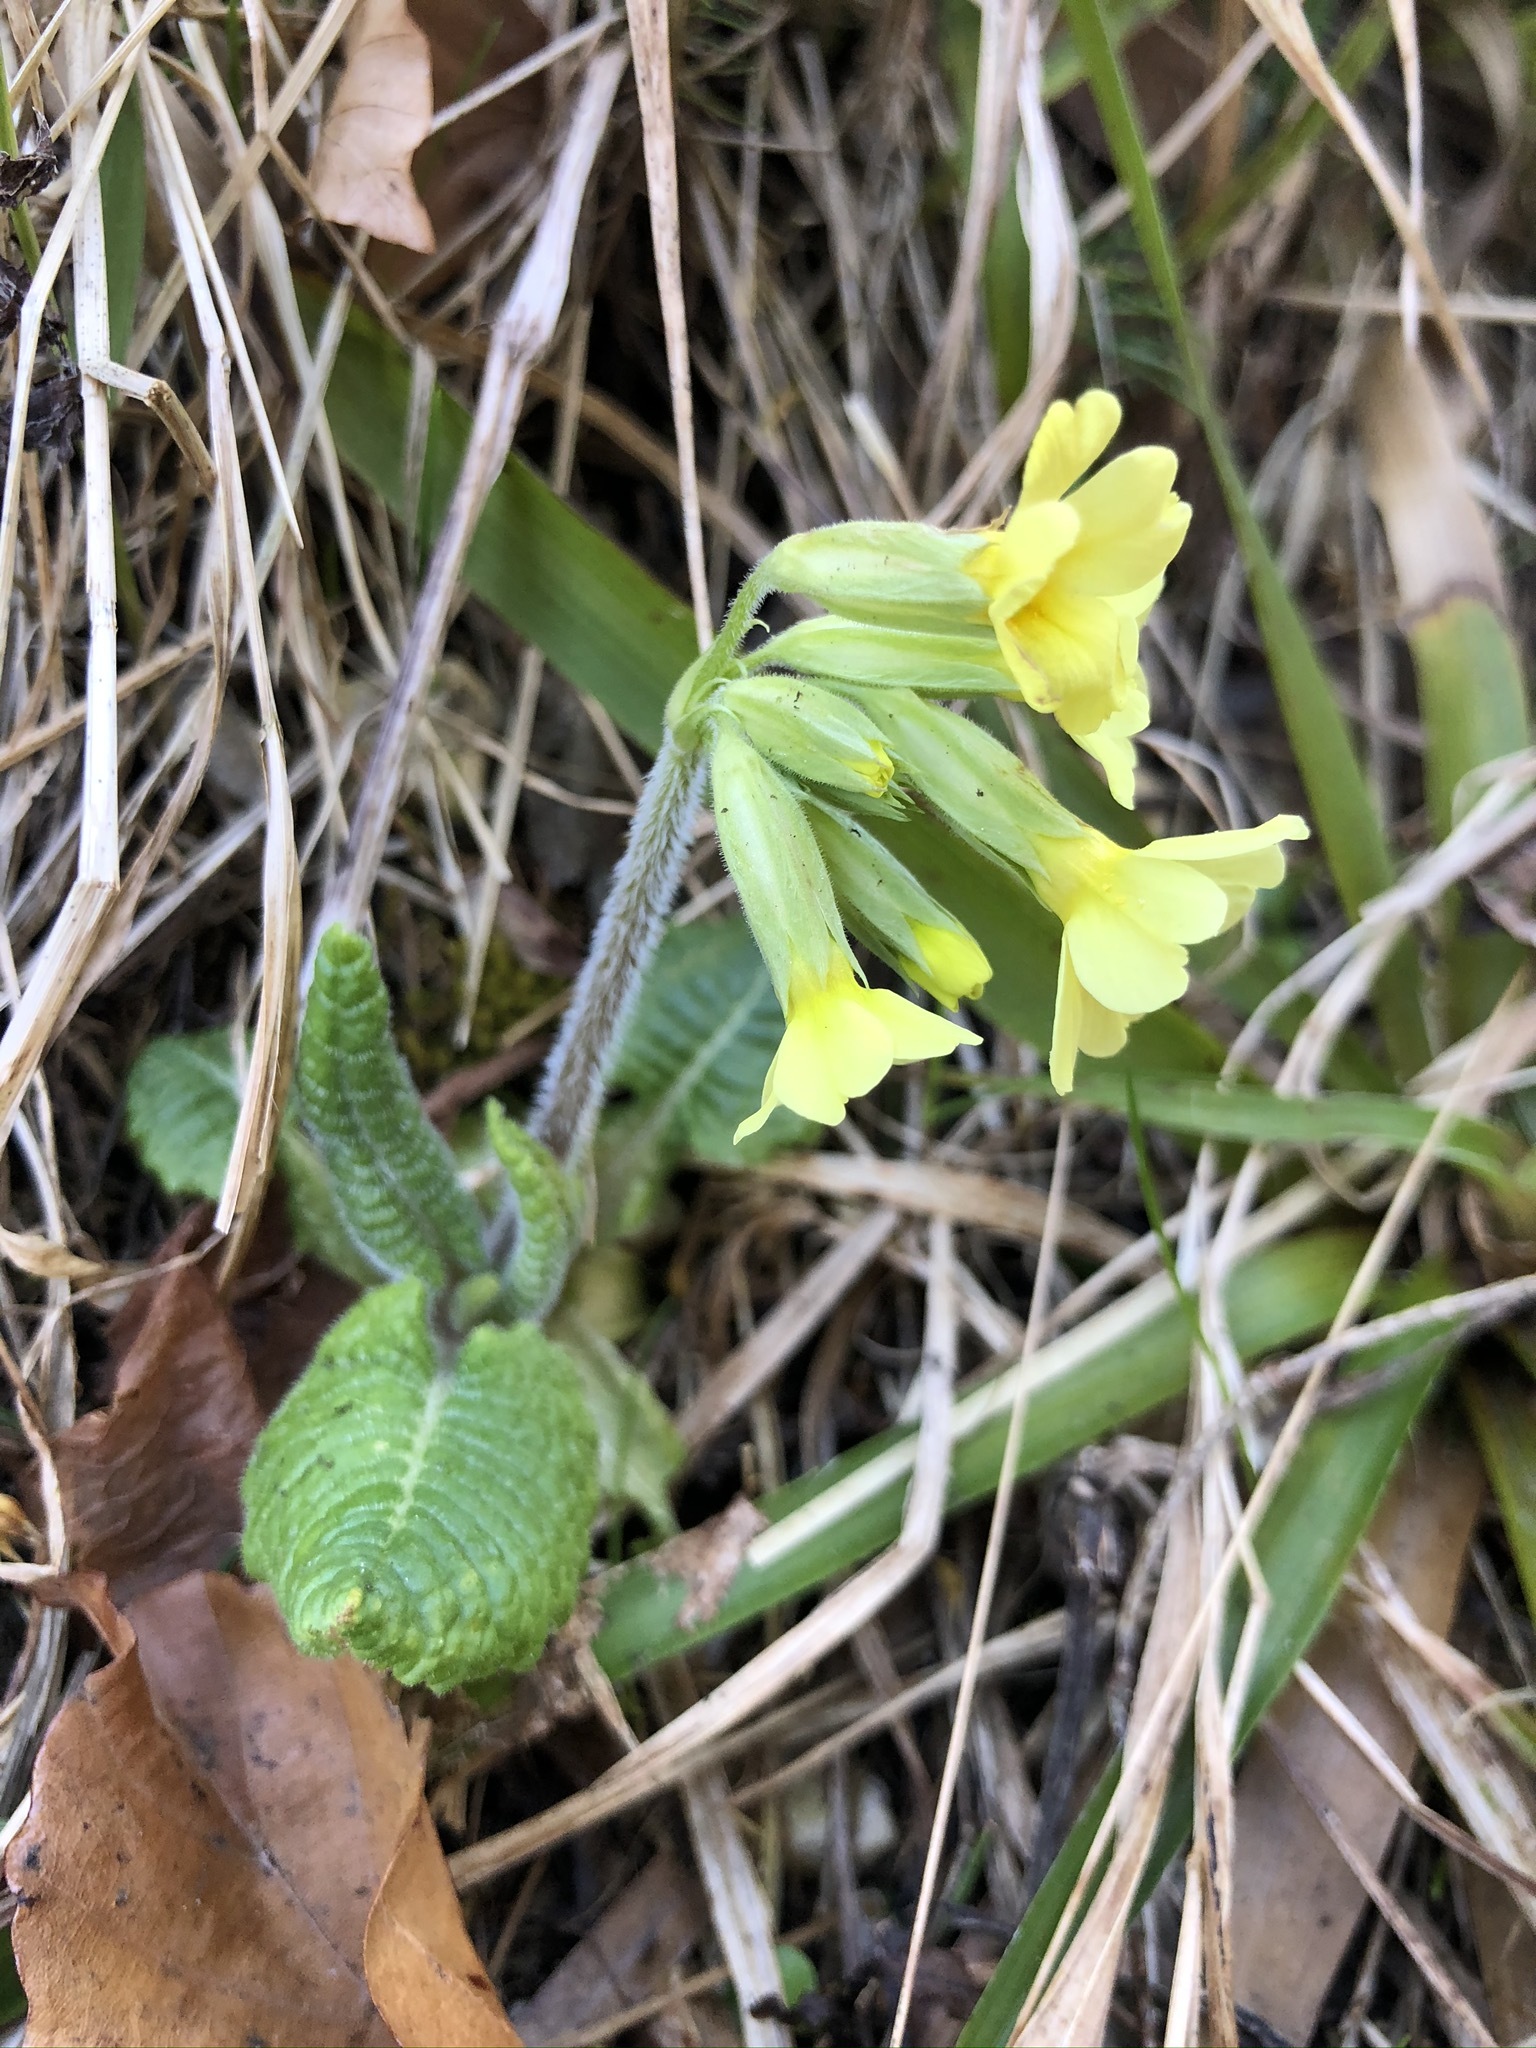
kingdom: Plantae
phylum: Tracheophyta
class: Magnoliopsida
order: Ericales
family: Primulaceae
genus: Primula
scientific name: Primula elatior
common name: Oxlip
